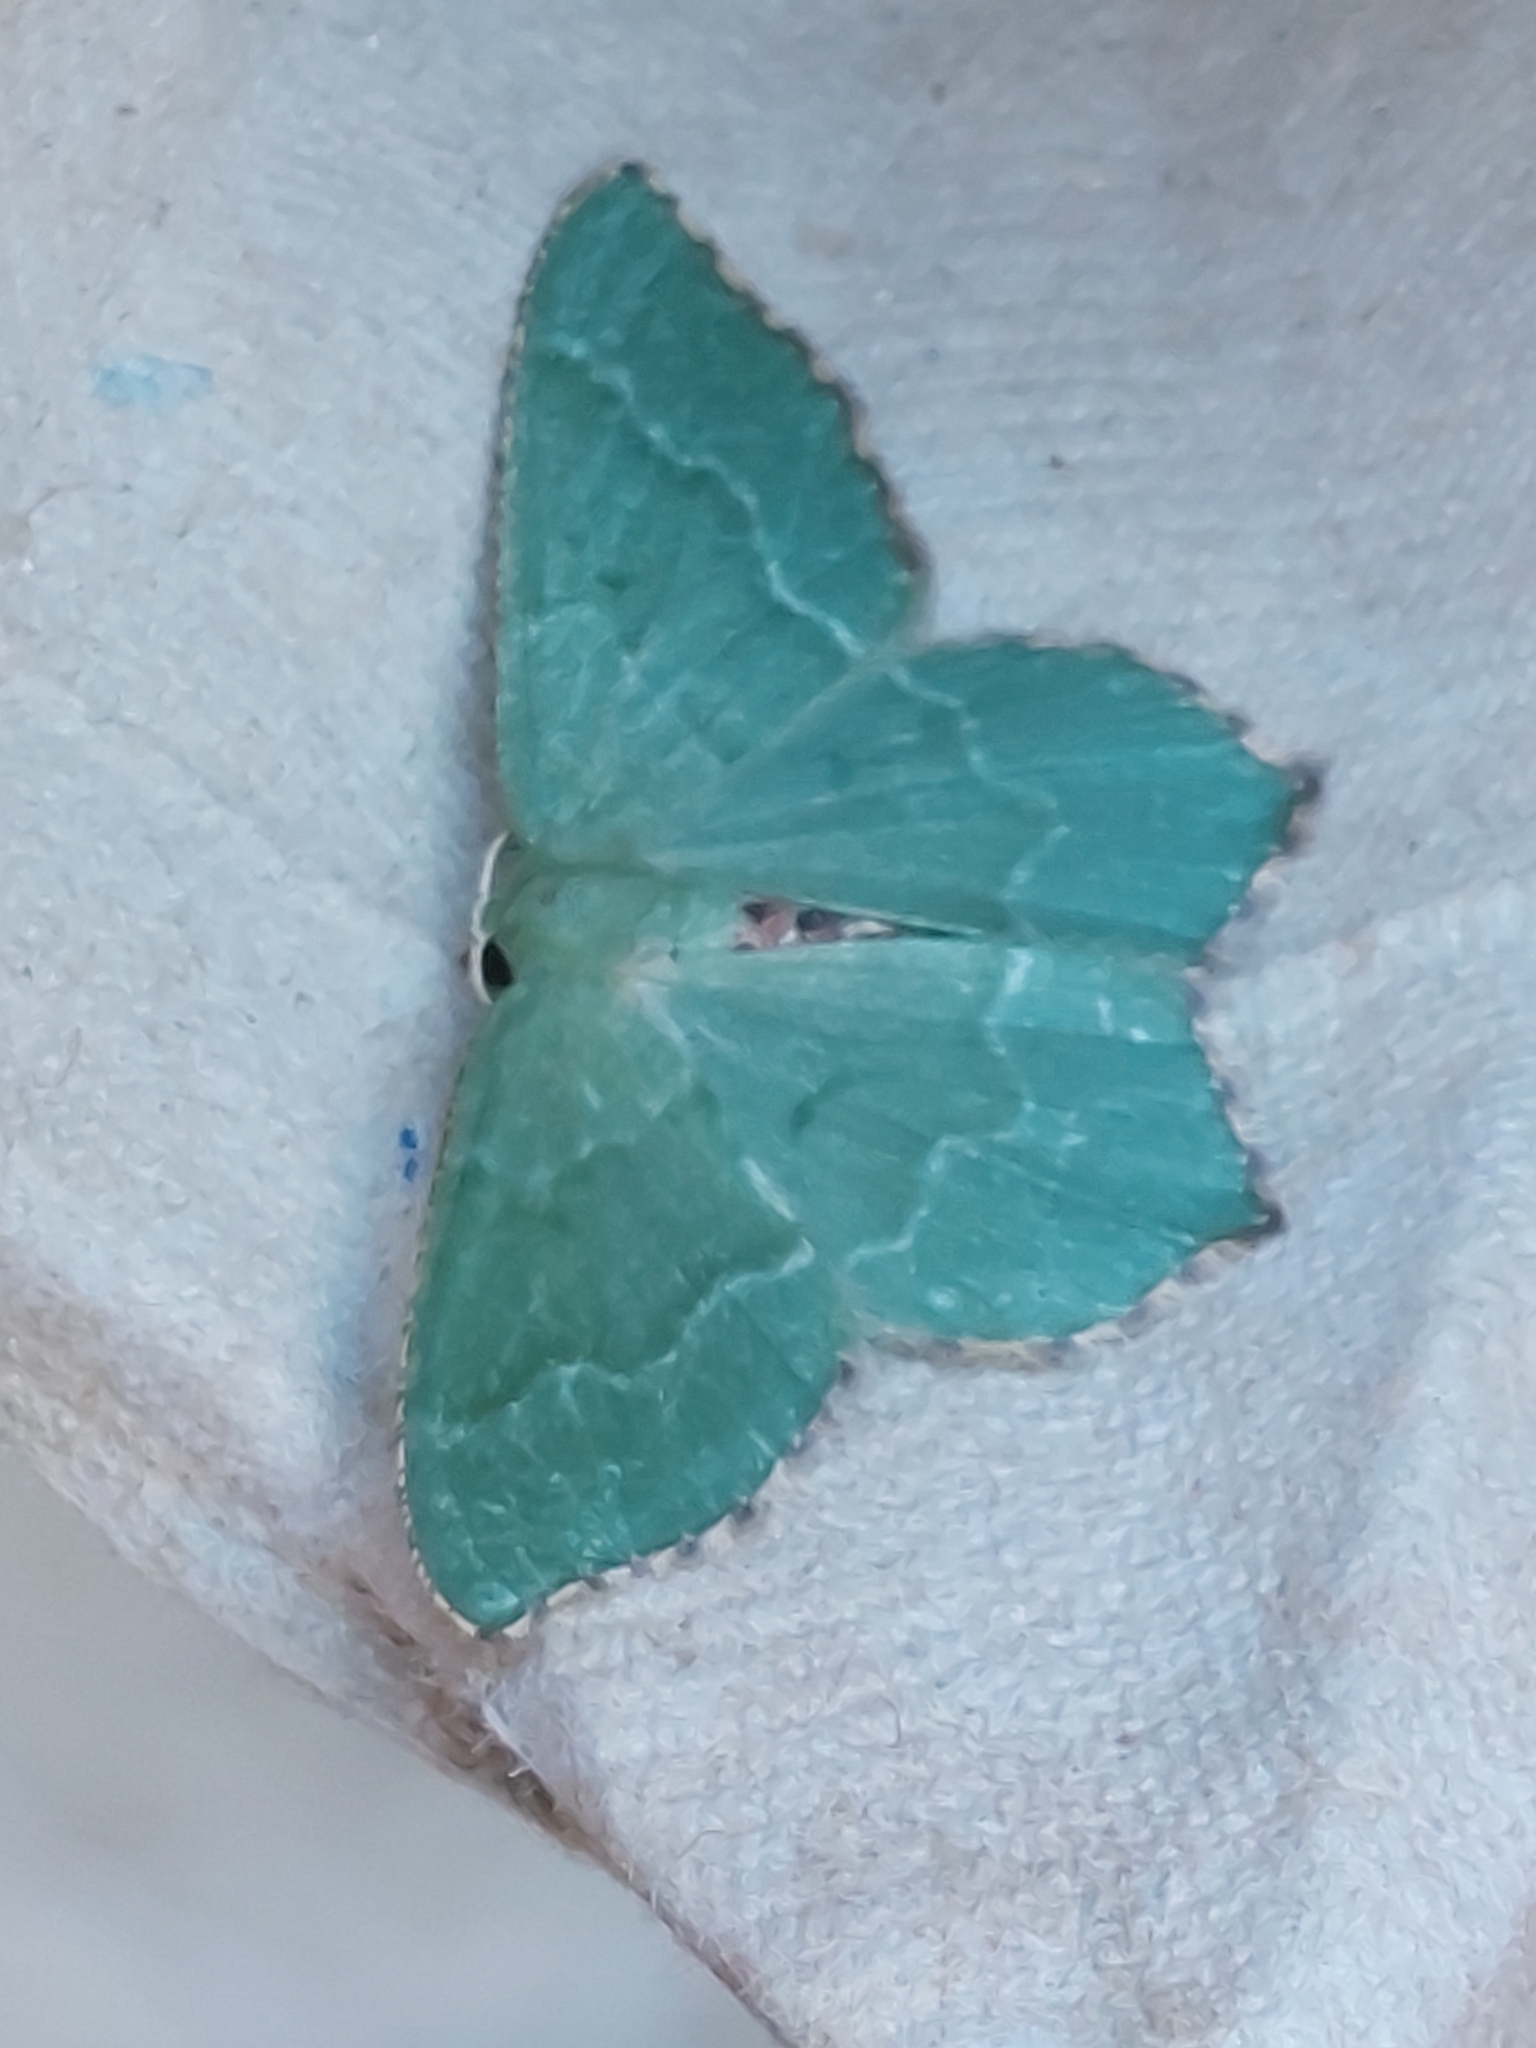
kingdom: Animalia
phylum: Arthropoda
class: Insecta
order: Lepidoptera
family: Geometridae
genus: Hemithea
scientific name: Hemithea aestivaria
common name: Common emerald
